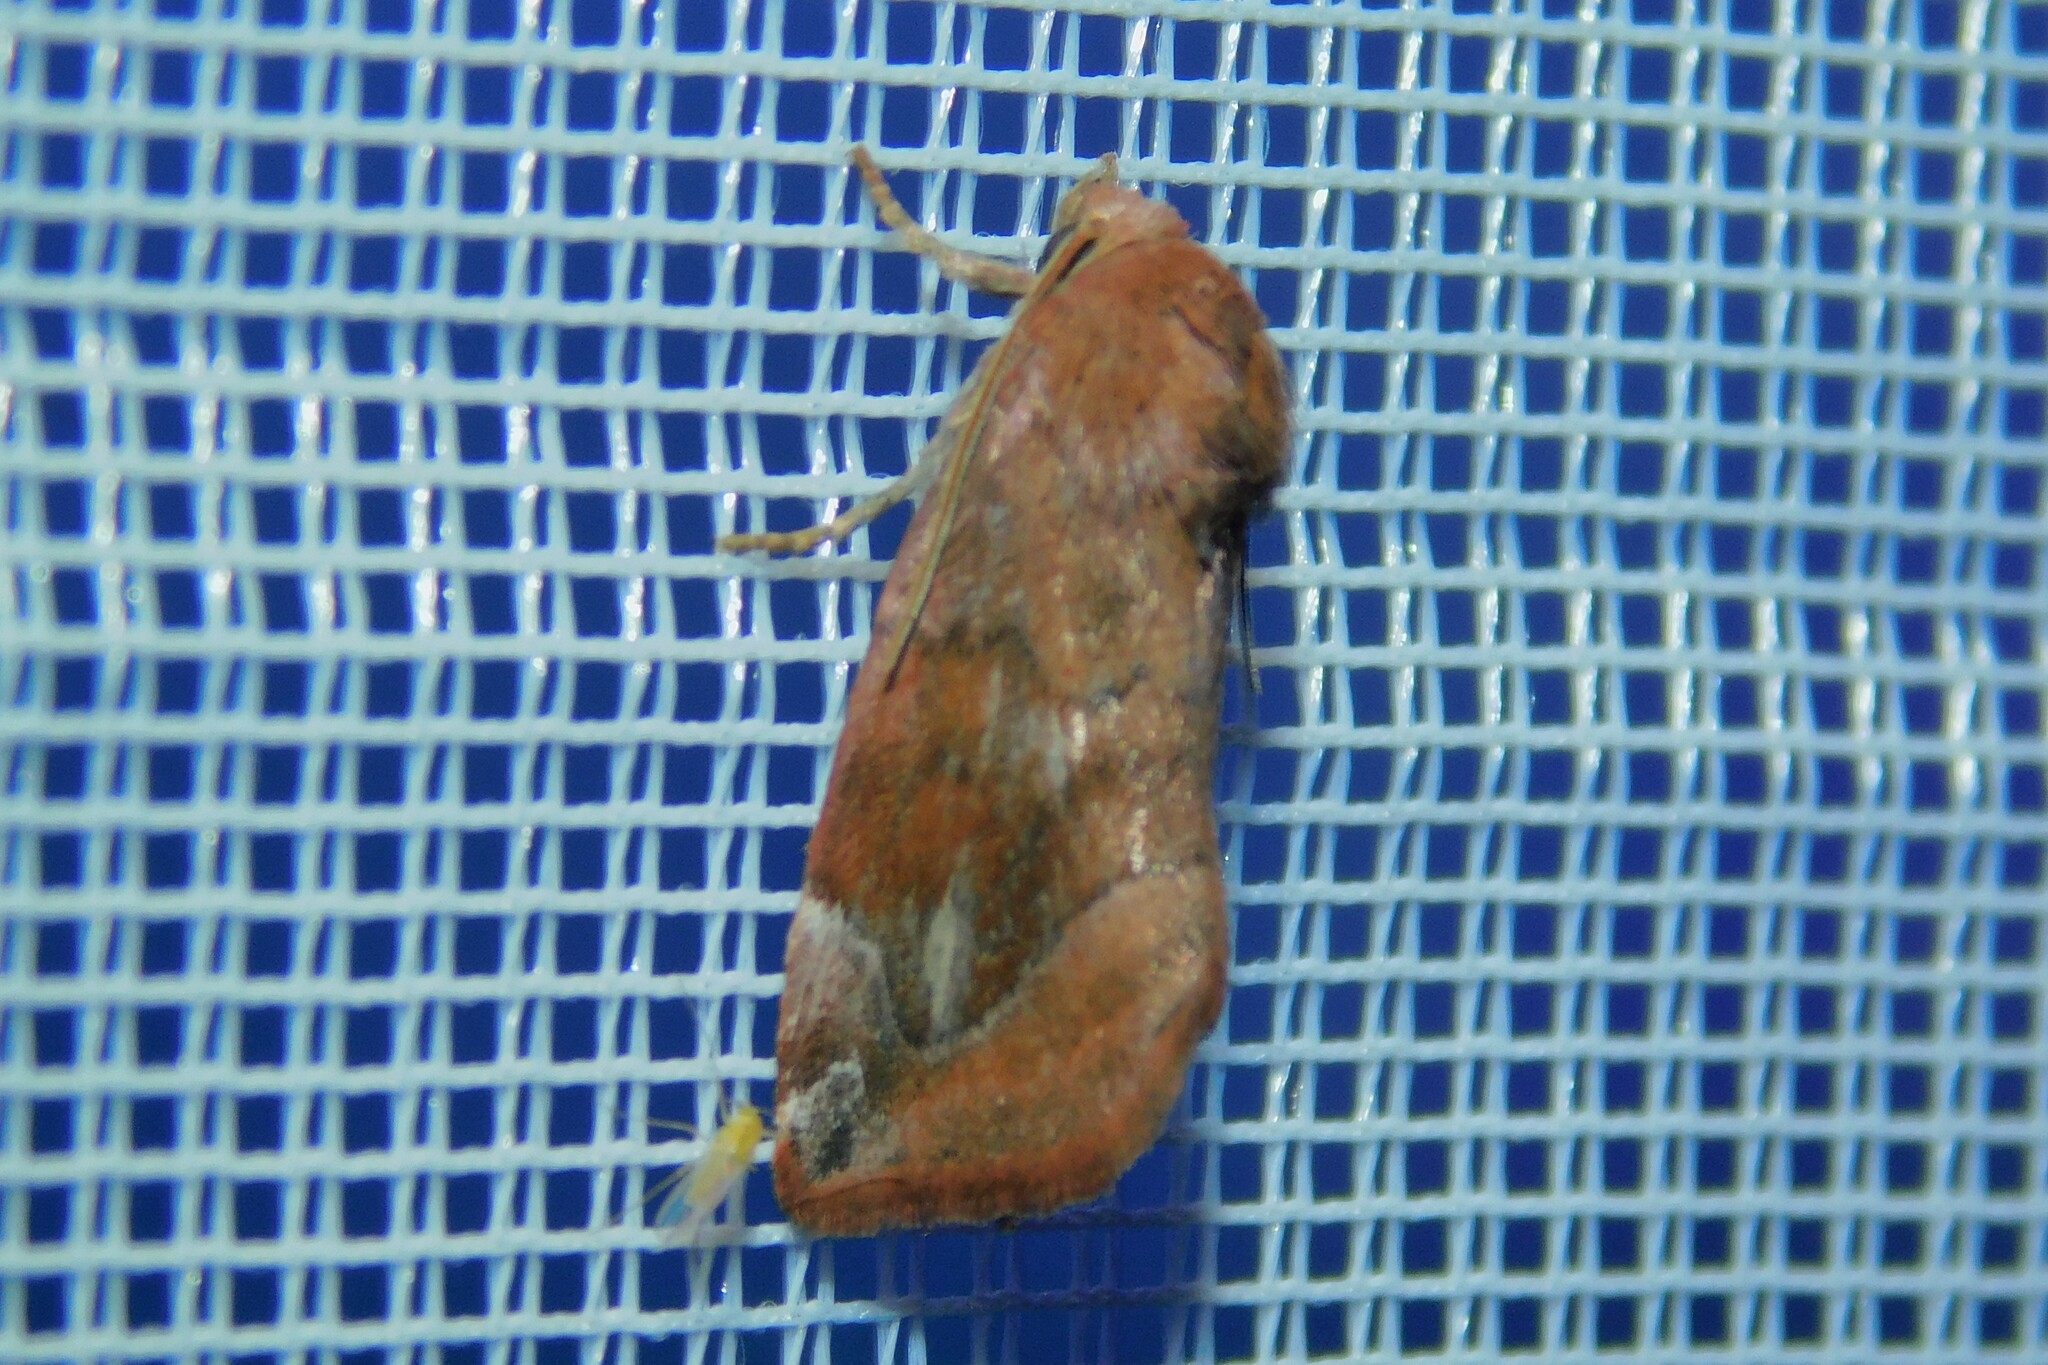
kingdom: Animalia
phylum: Arthropoda
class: Insecta
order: Lepidoptera
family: Noctuidae
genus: Cosmia
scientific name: Cosmia pyralina
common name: Lunar-spotted pinion
